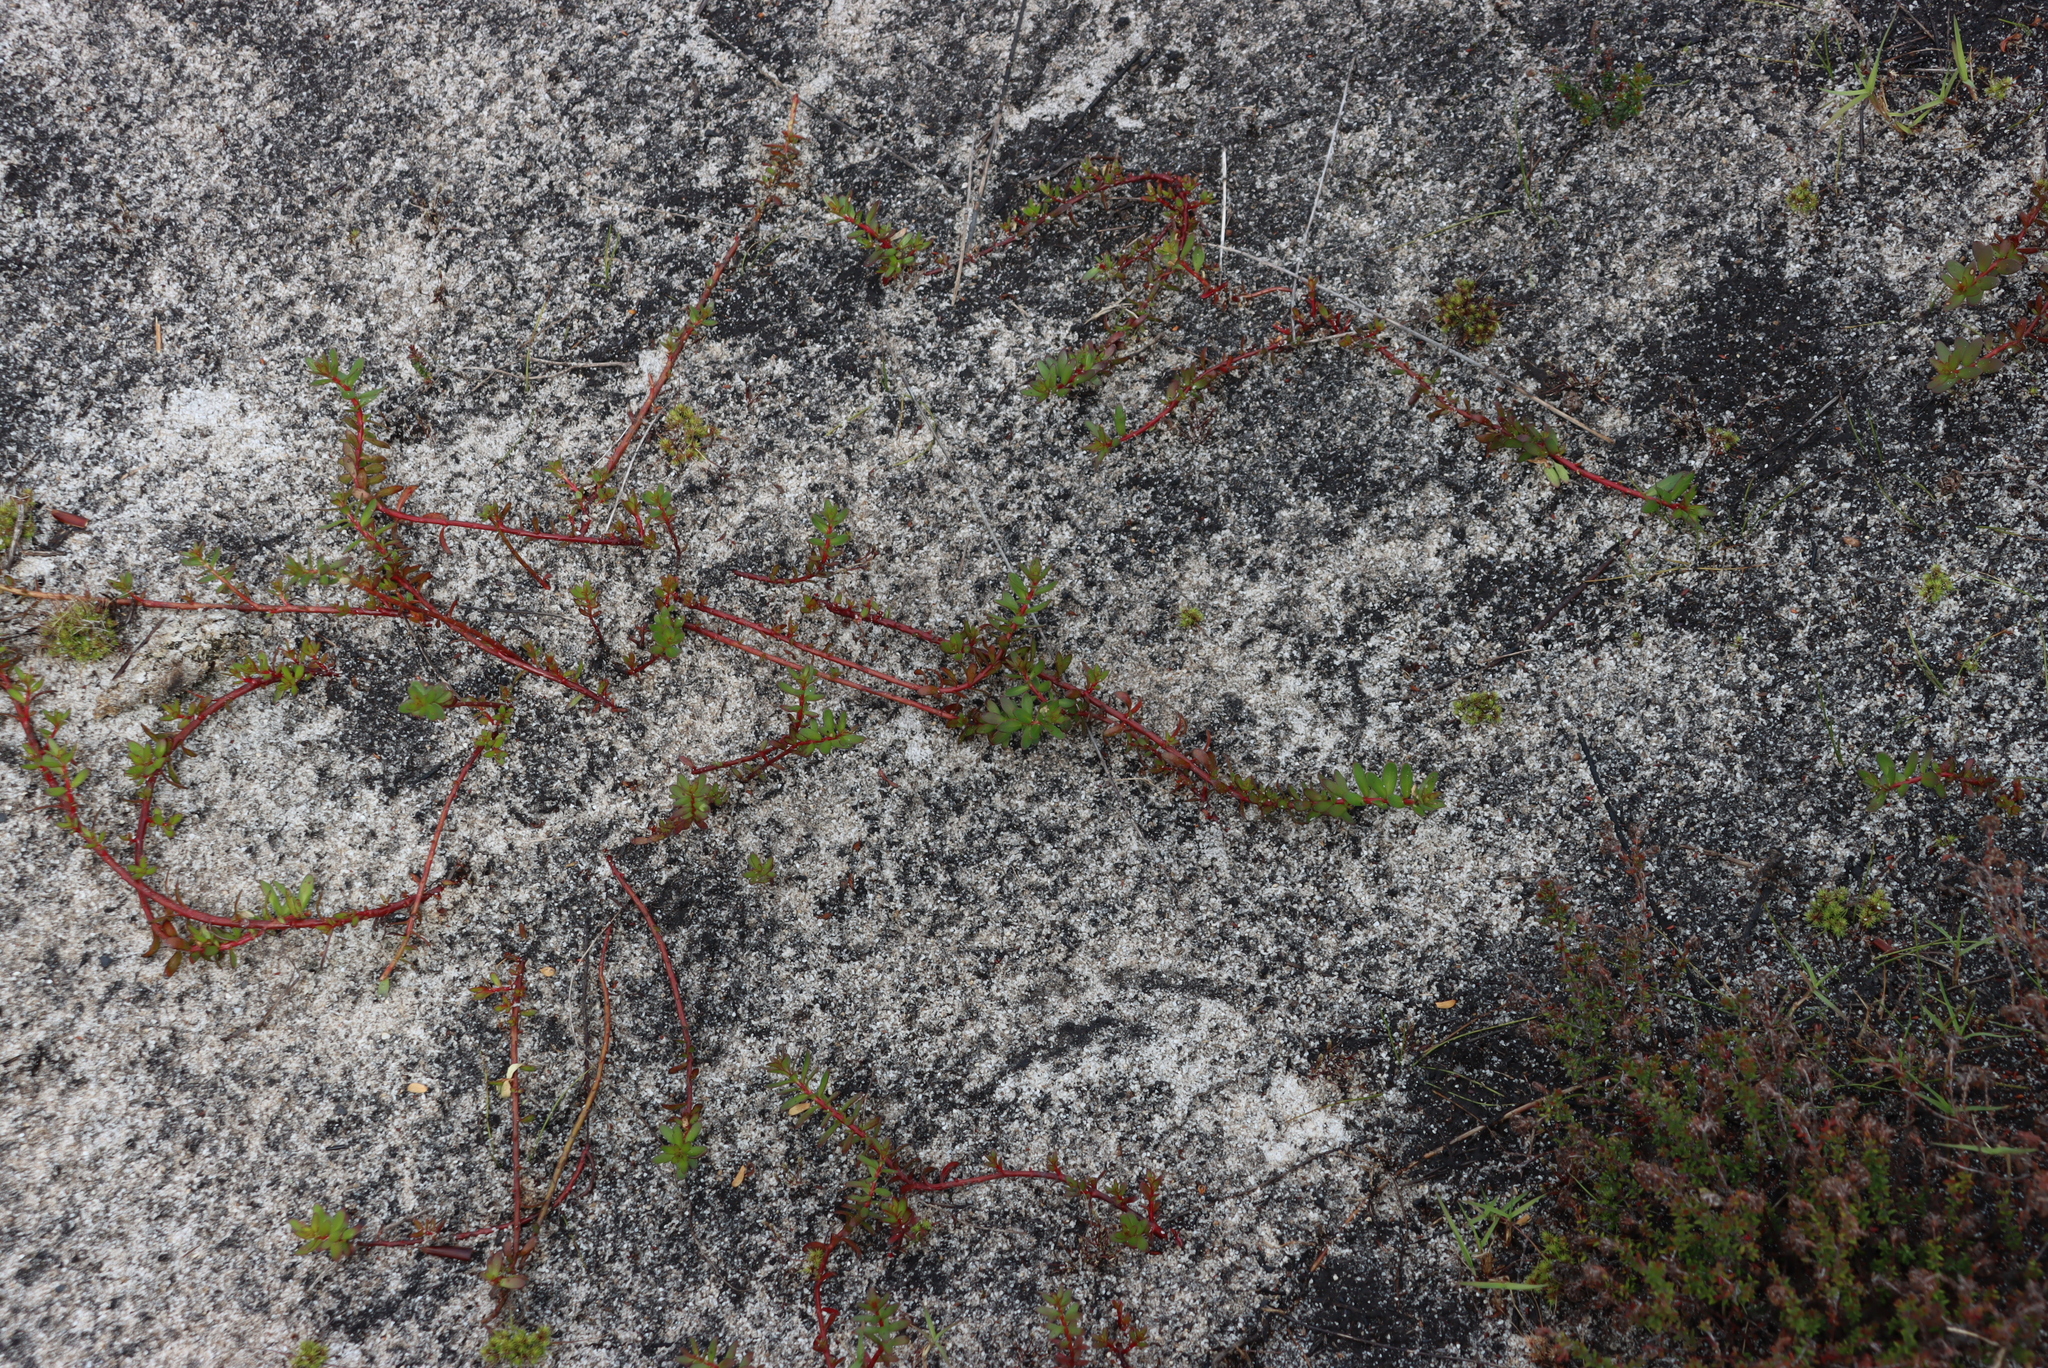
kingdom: Plantae
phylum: Tracheophyta
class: Magnoliopsida
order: Saxifragales
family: Haloragaceae
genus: Laurembergia
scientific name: Laurembergia repens
